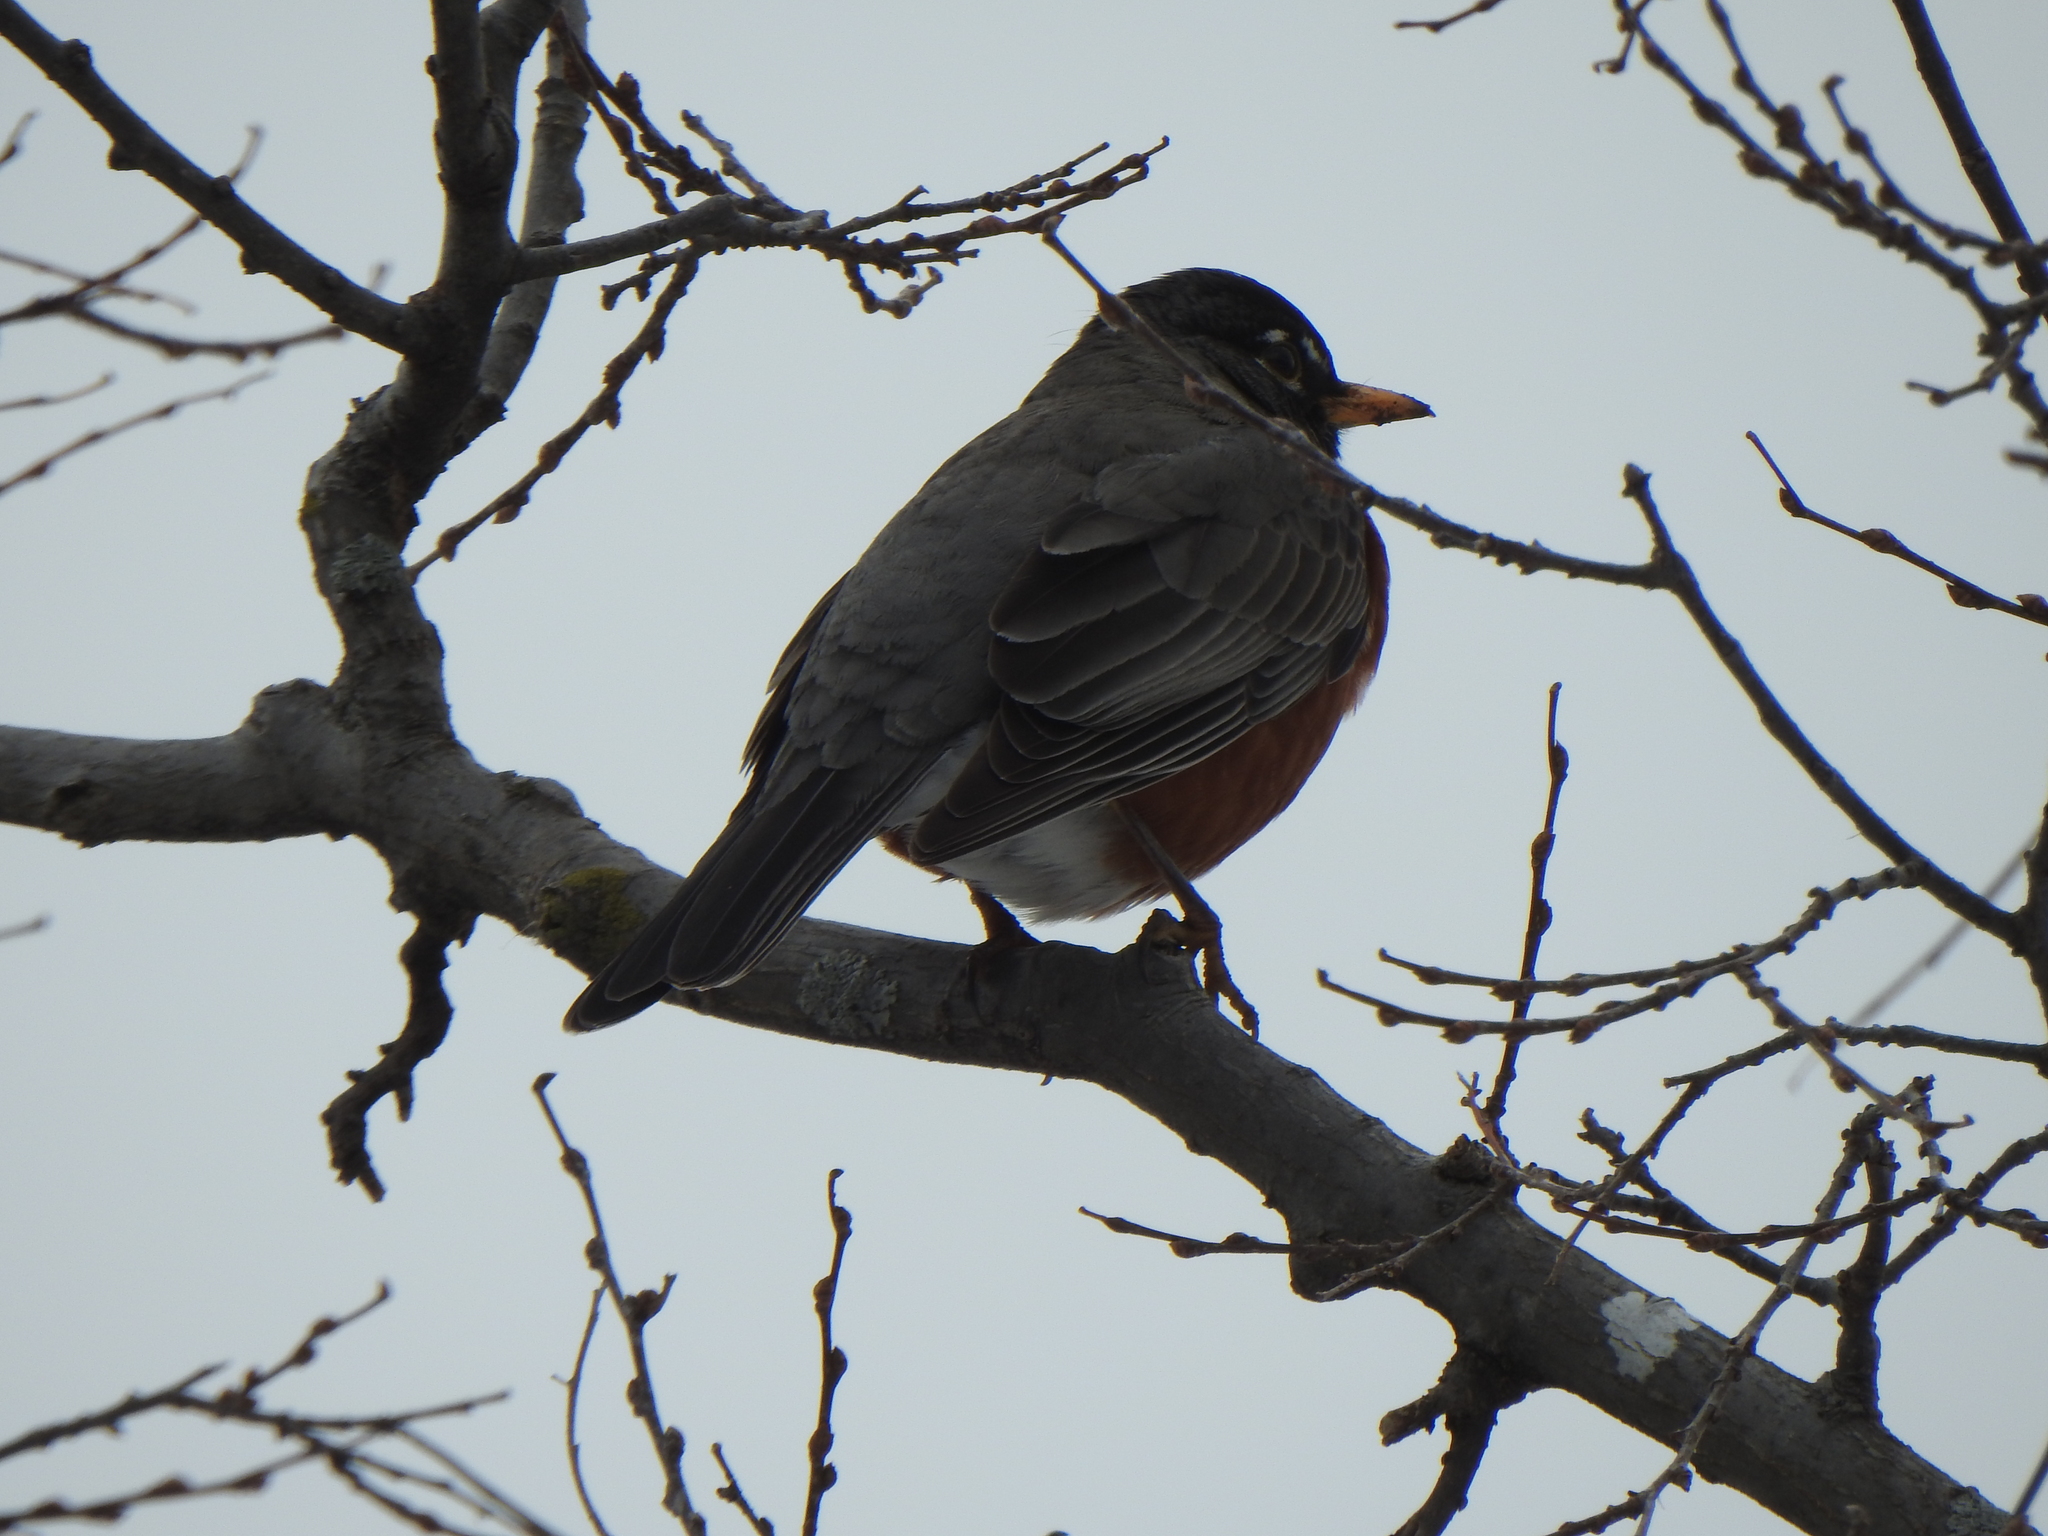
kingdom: Animalia
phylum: Chordata
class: Aves
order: Passeriformes
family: Turdidae
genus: Turdus
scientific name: Turdus migratorius
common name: American robin
